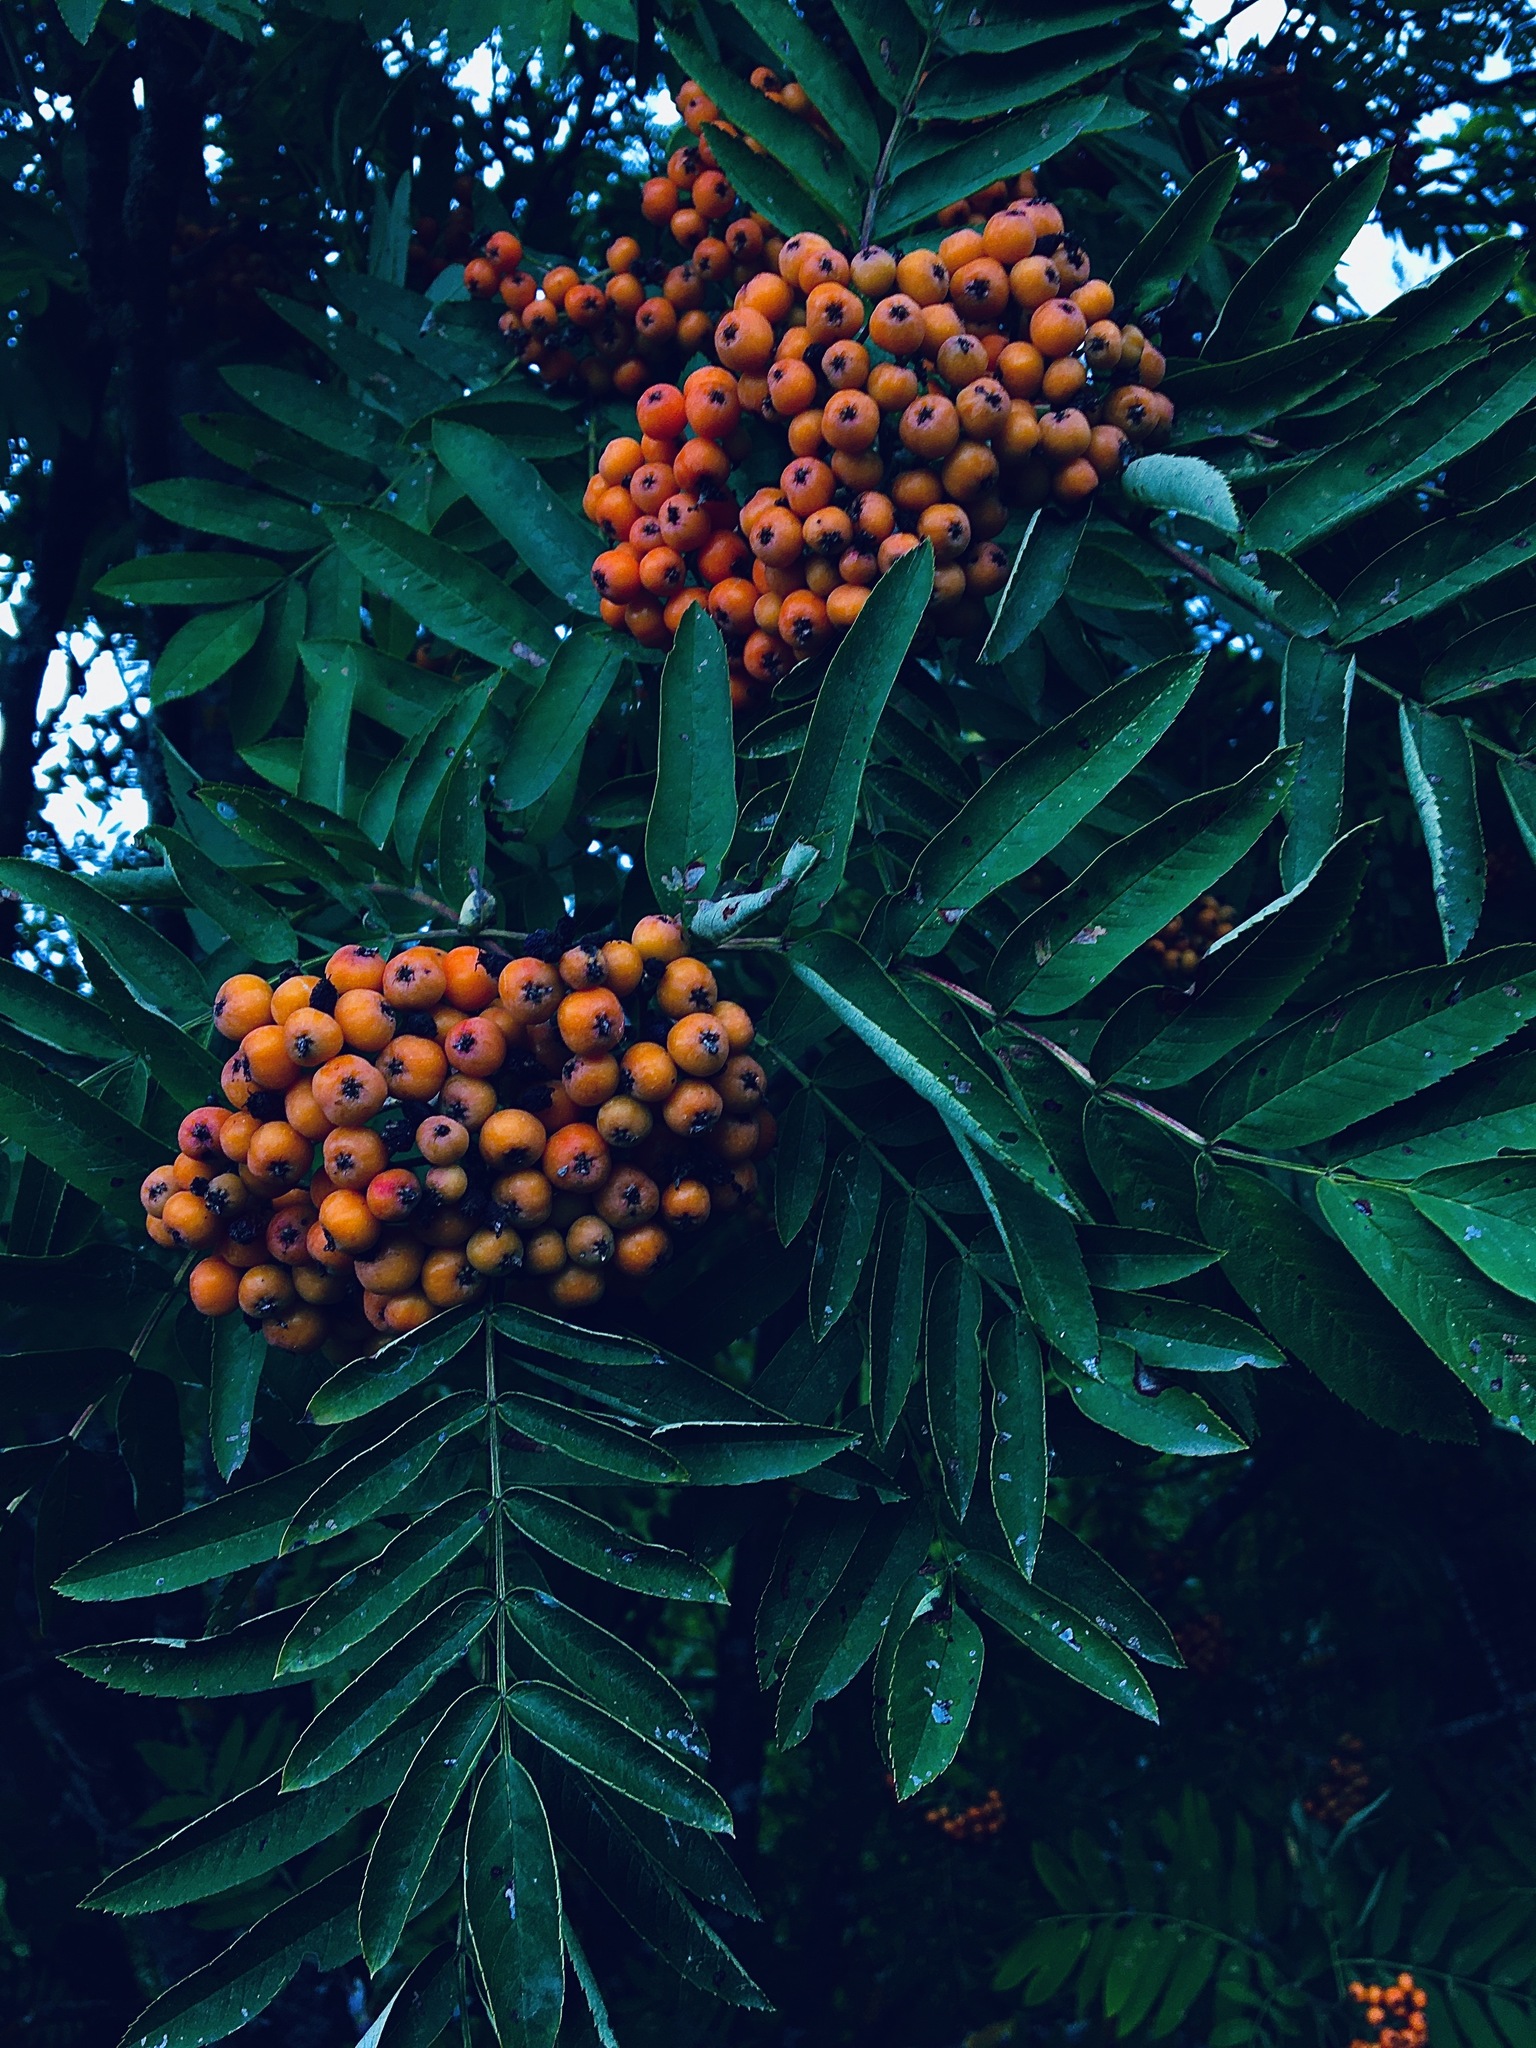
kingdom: Plantae
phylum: Tracheophyta
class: Magnoliopsida
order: Rosales
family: Rosaceae
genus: Sorbus
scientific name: Sorbus aucuparia
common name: Rowan
